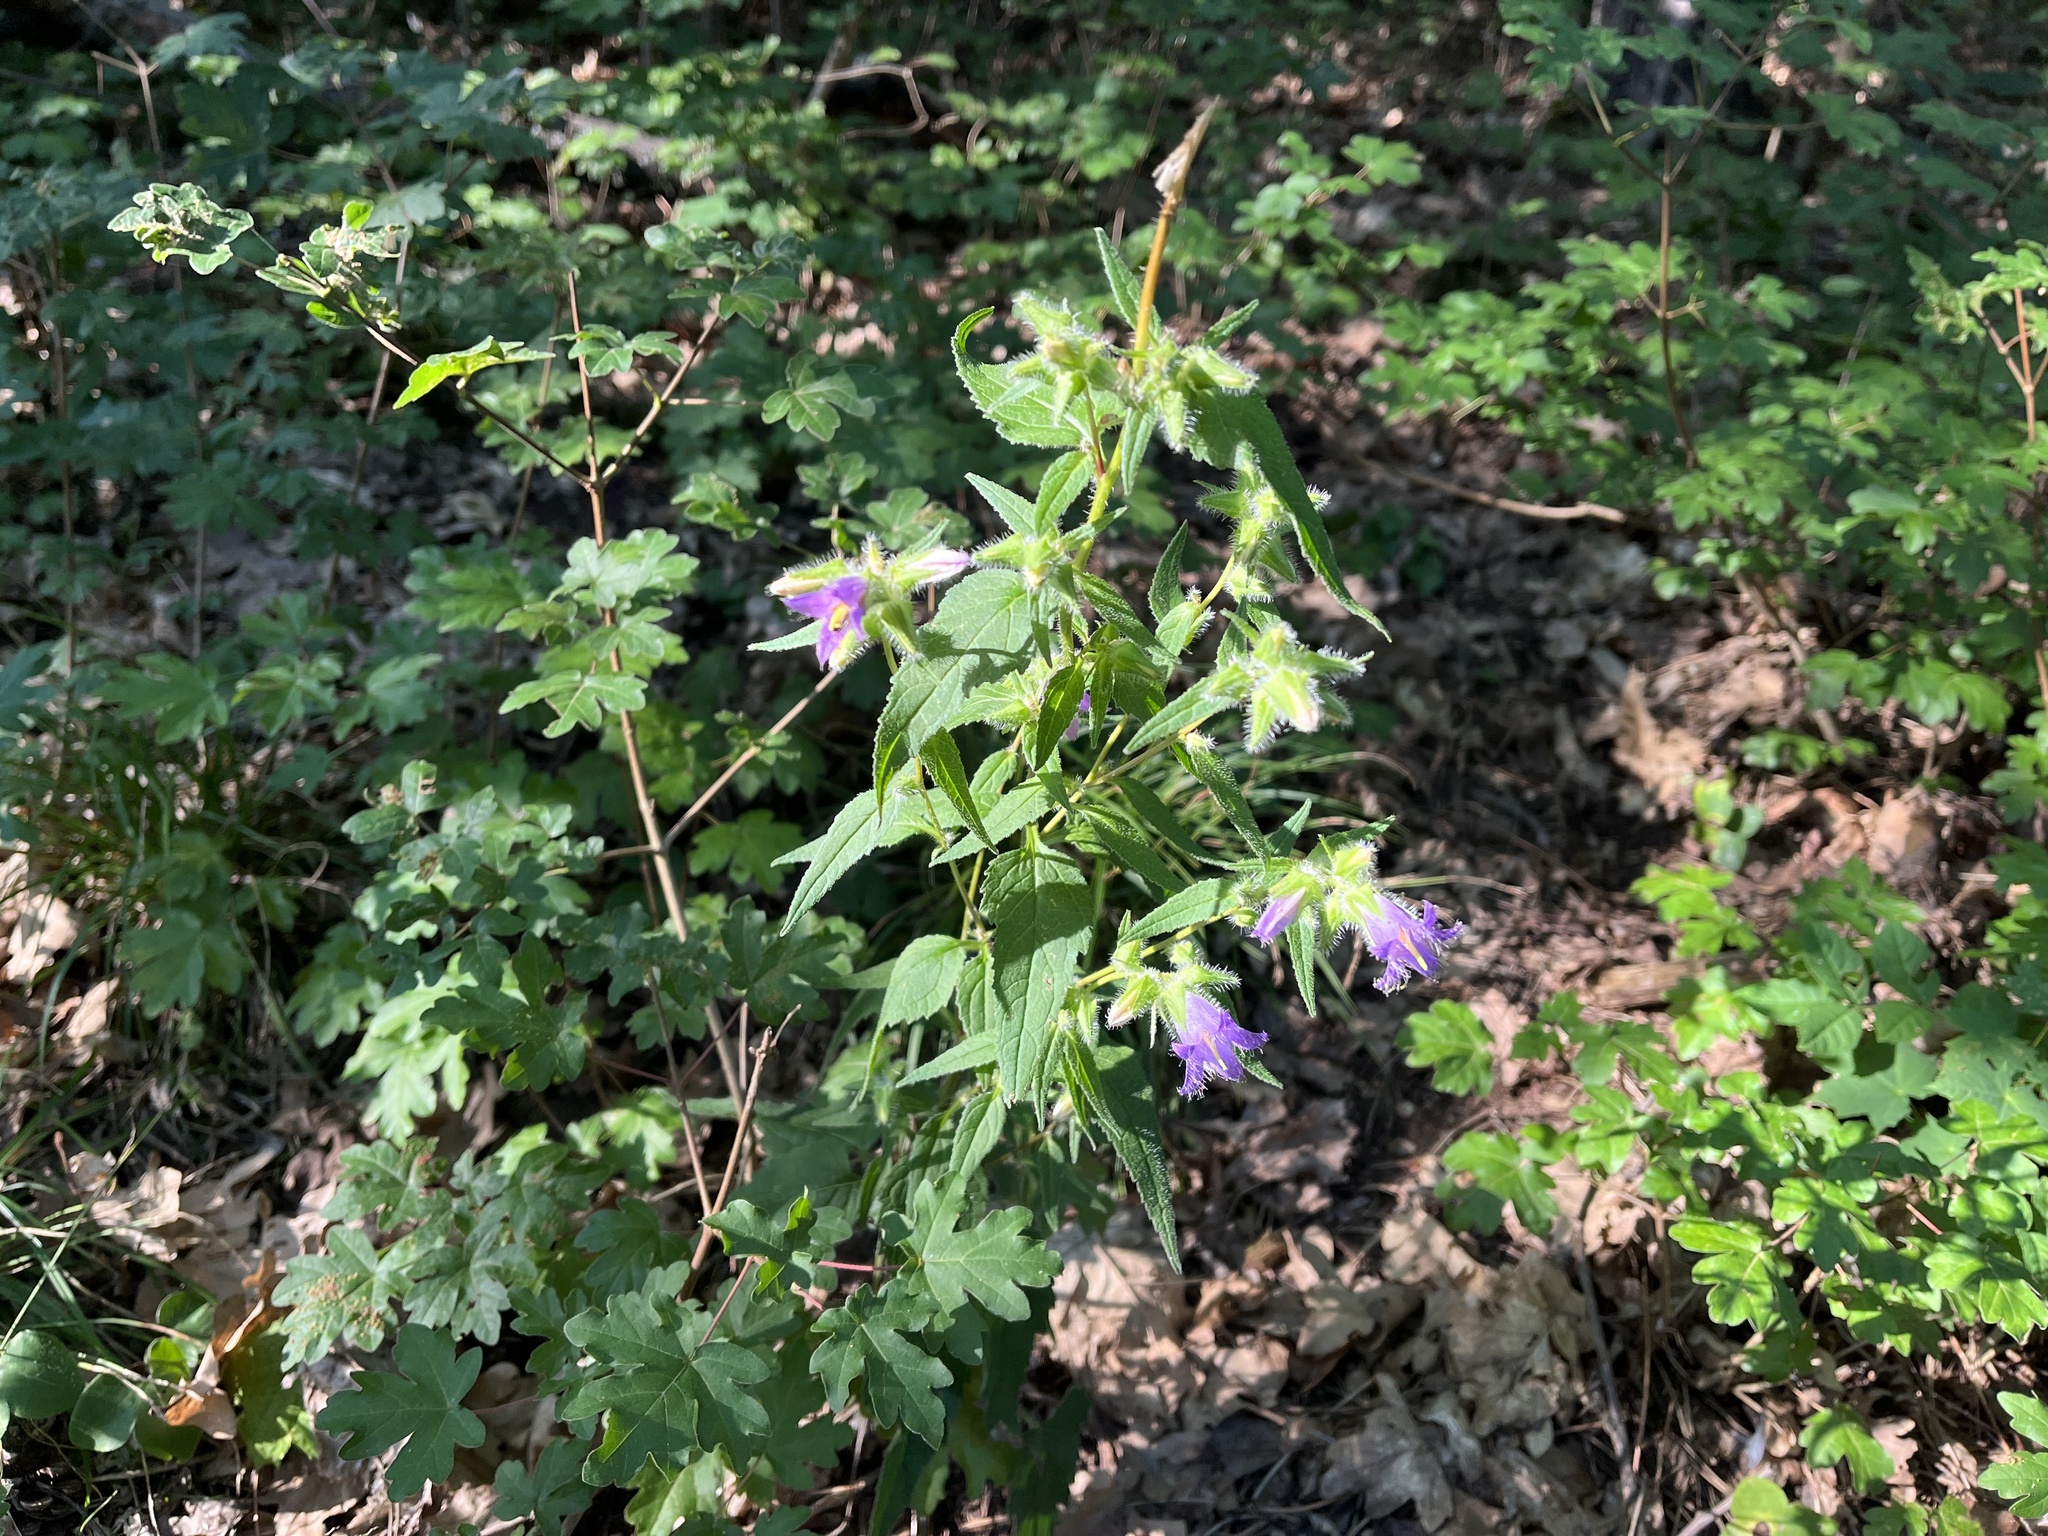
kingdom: Plantae
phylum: Tracheophyta
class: Magnoliopsida
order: Asterales
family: Campanulaceae
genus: Campanula
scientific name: Campanula trachelium
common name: Nettle-leaved bellflower
